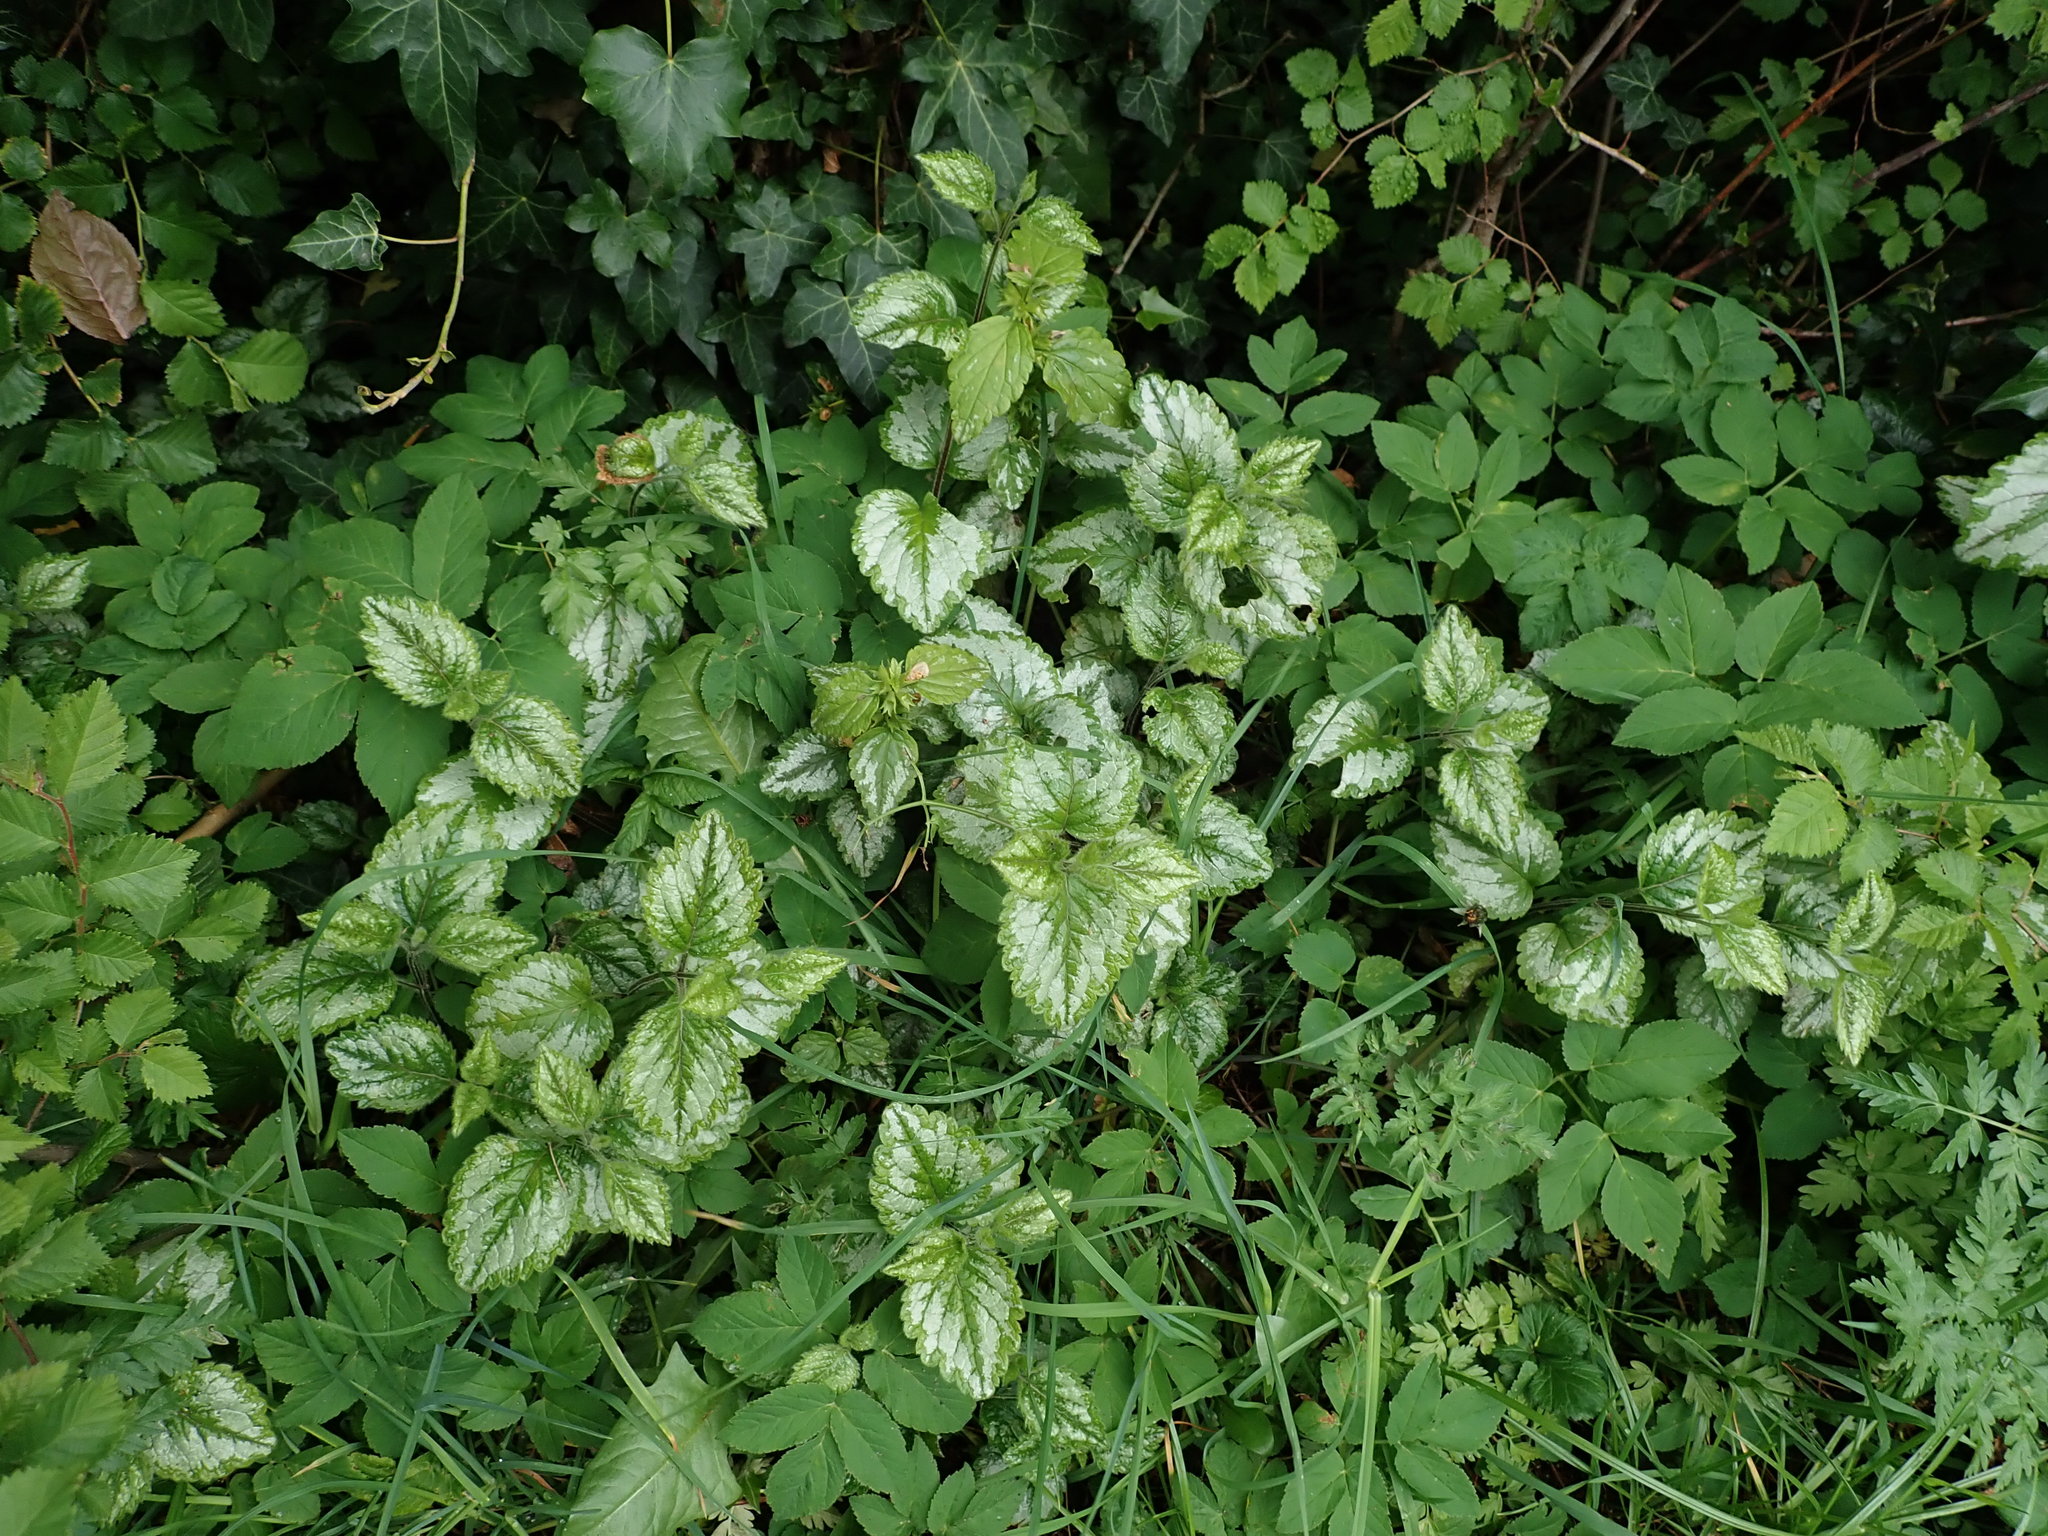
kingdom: Plantae
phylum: Tracheophyta
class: Magnoliopsida
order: Lamiales
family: Lamiaceae
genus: Lamium
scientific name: Lamium galeobdolon
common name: Yellow archangel
